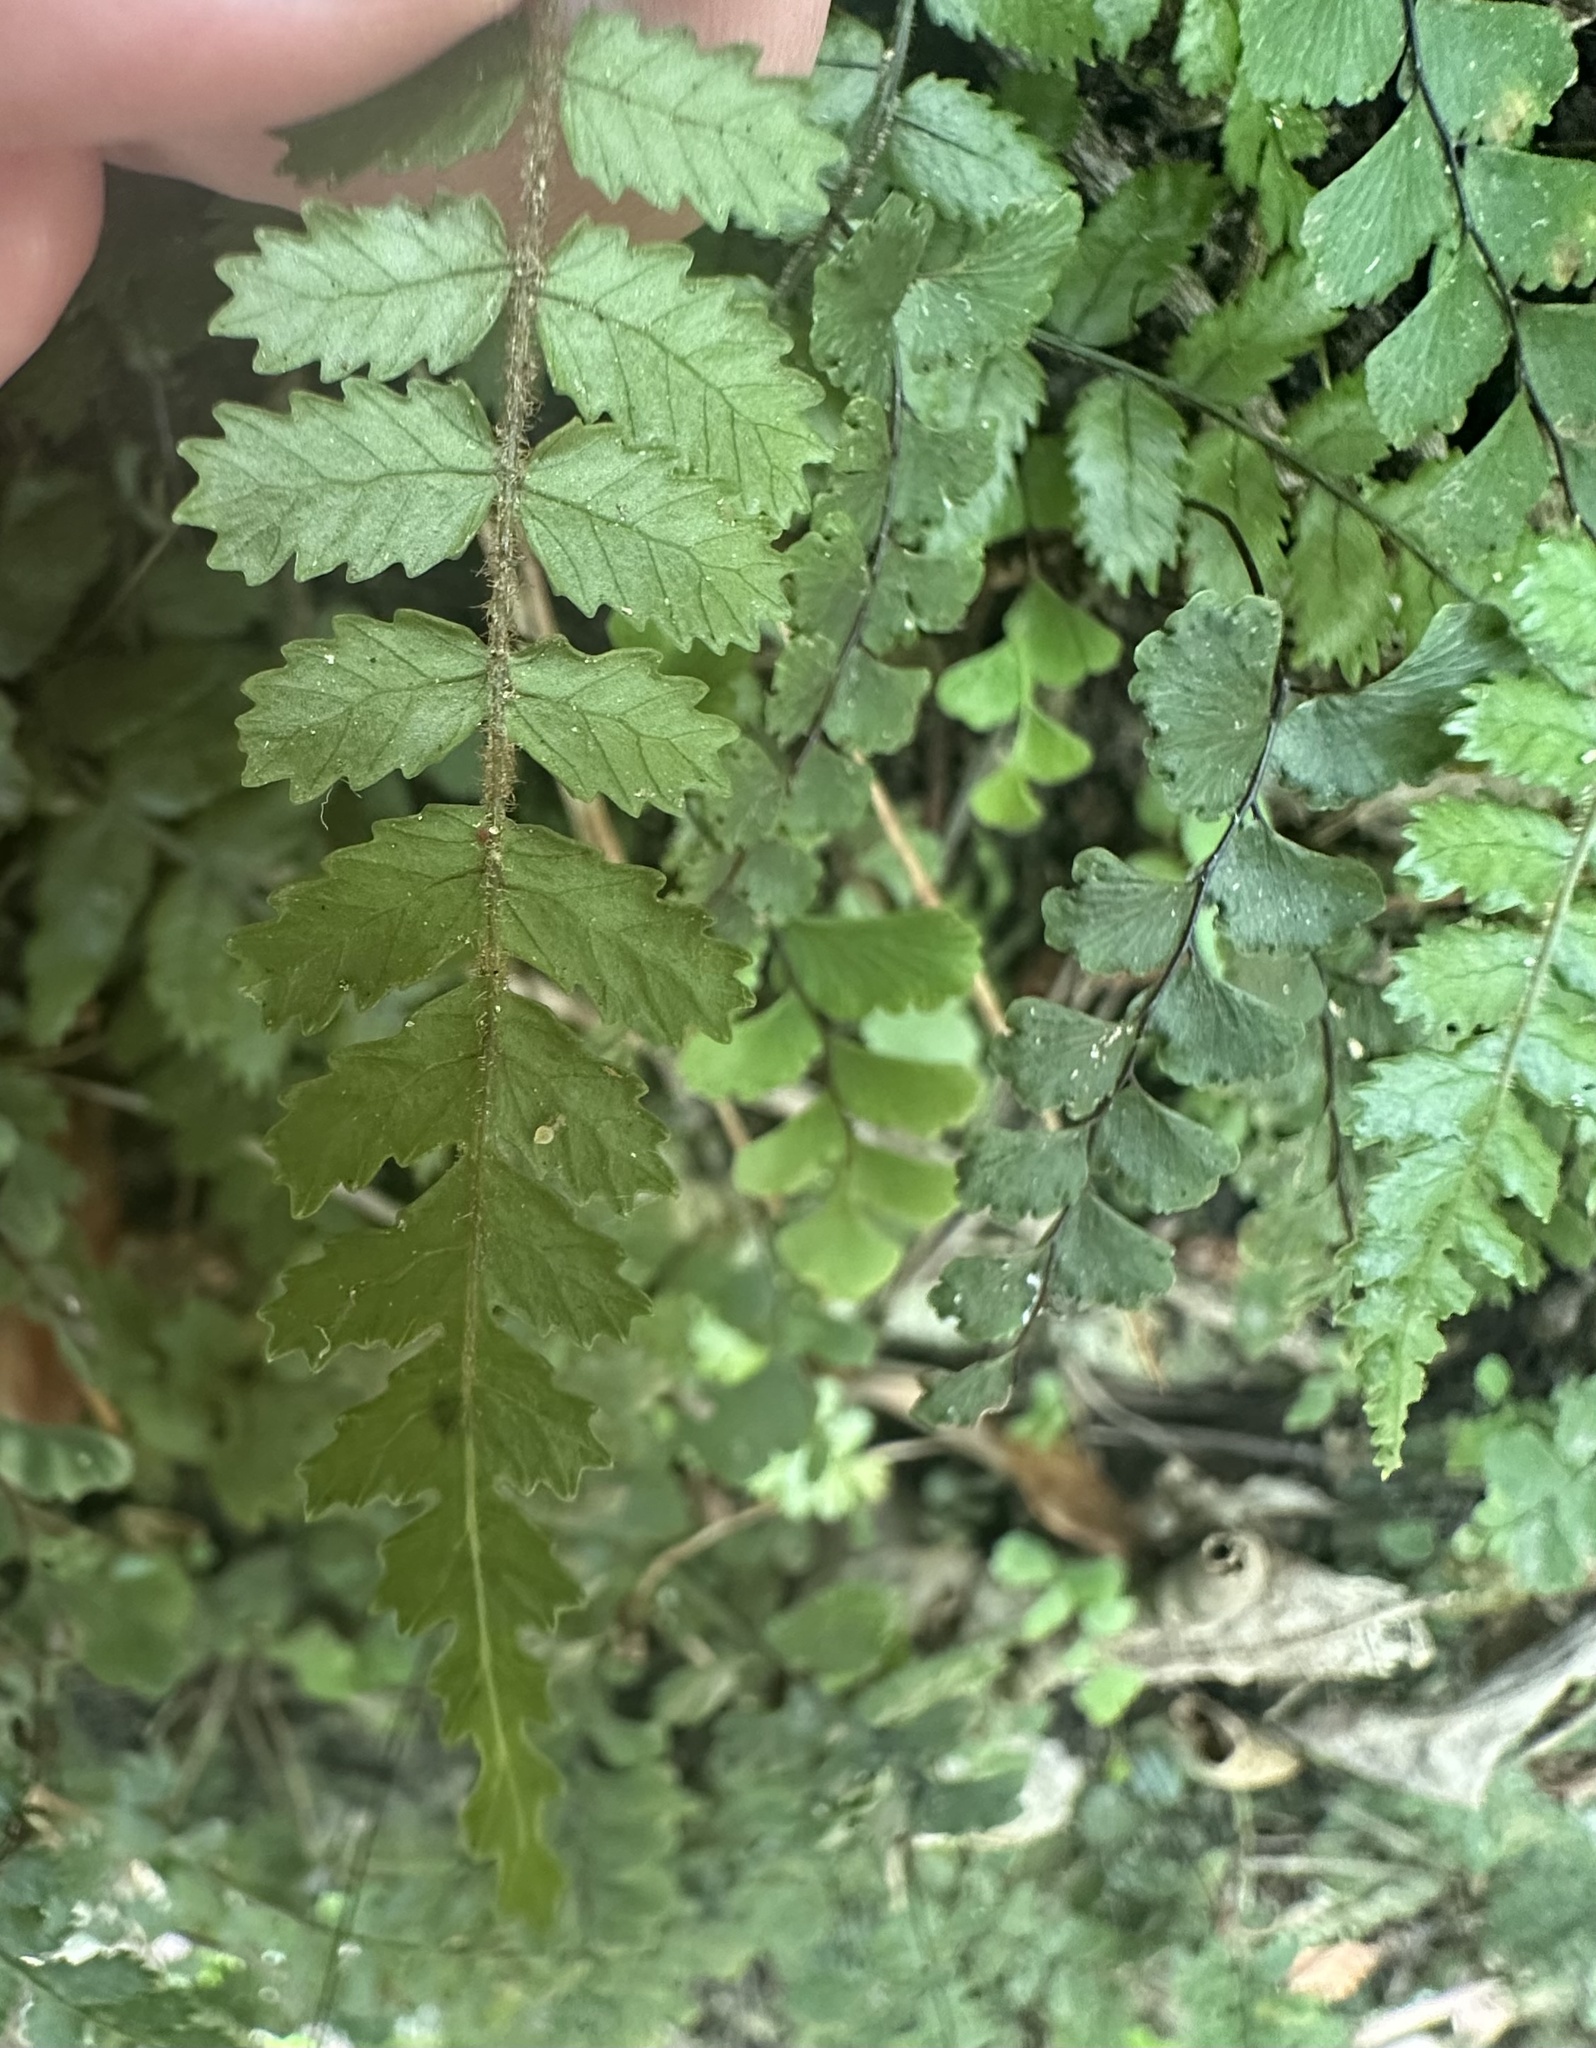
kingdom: Plantae
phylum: Tracheophyta
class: Polypodiopsida
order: Polypodiales
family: Blechnaceae
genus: Icarus
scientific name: Icarus filiformis
